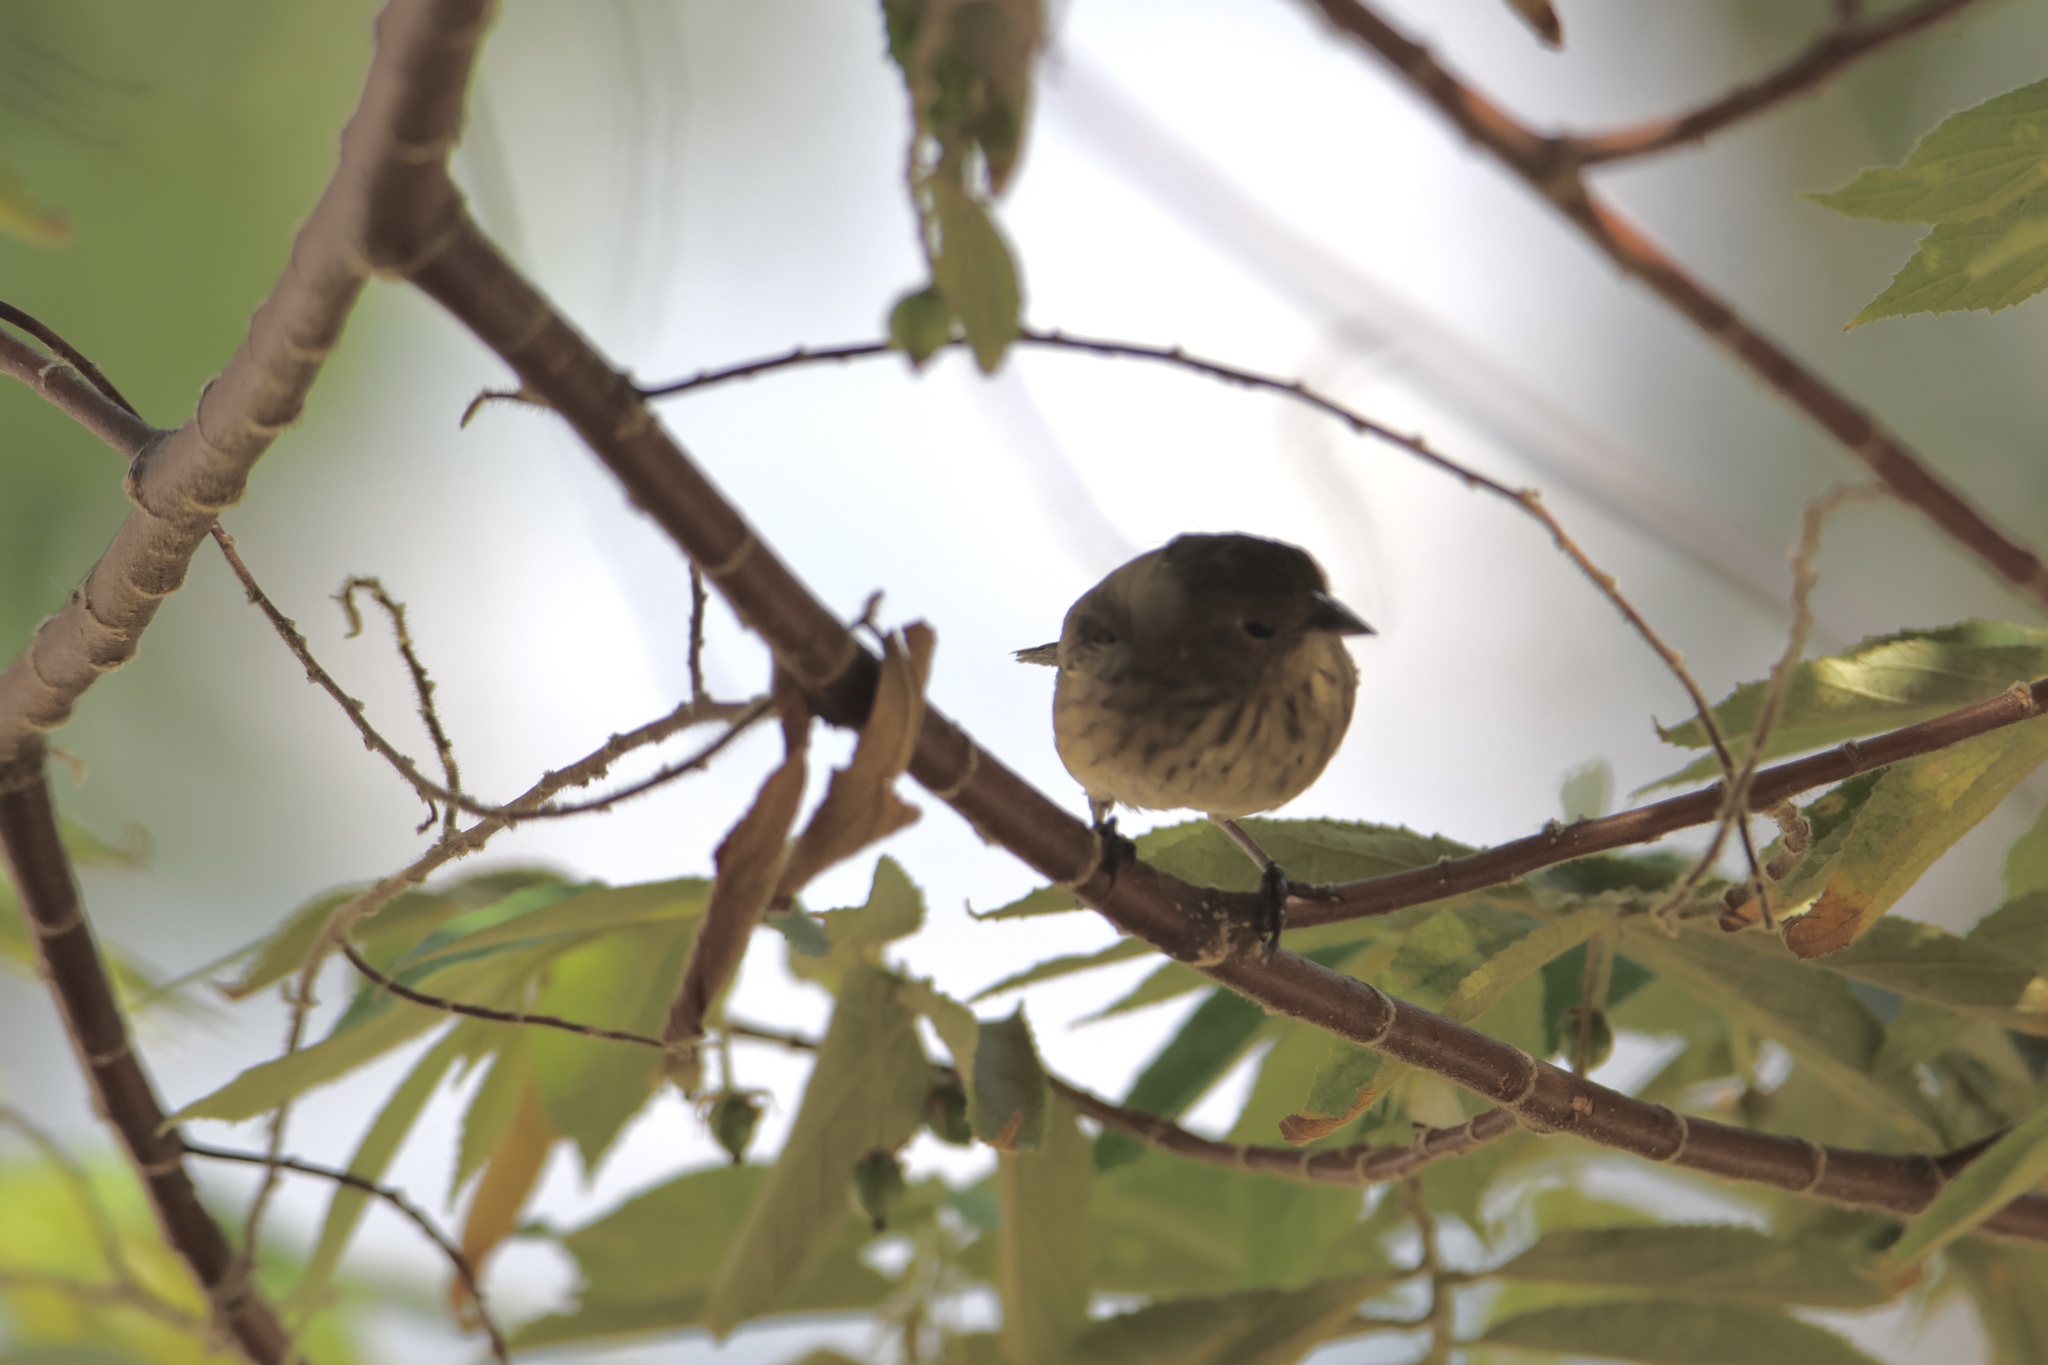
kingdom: Animalia
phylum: Chordata
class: Aves
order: Passeriformes
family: Thraupidae
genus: Volatinia
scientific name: Volatinia jacarina
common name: Blue-black grassquit
